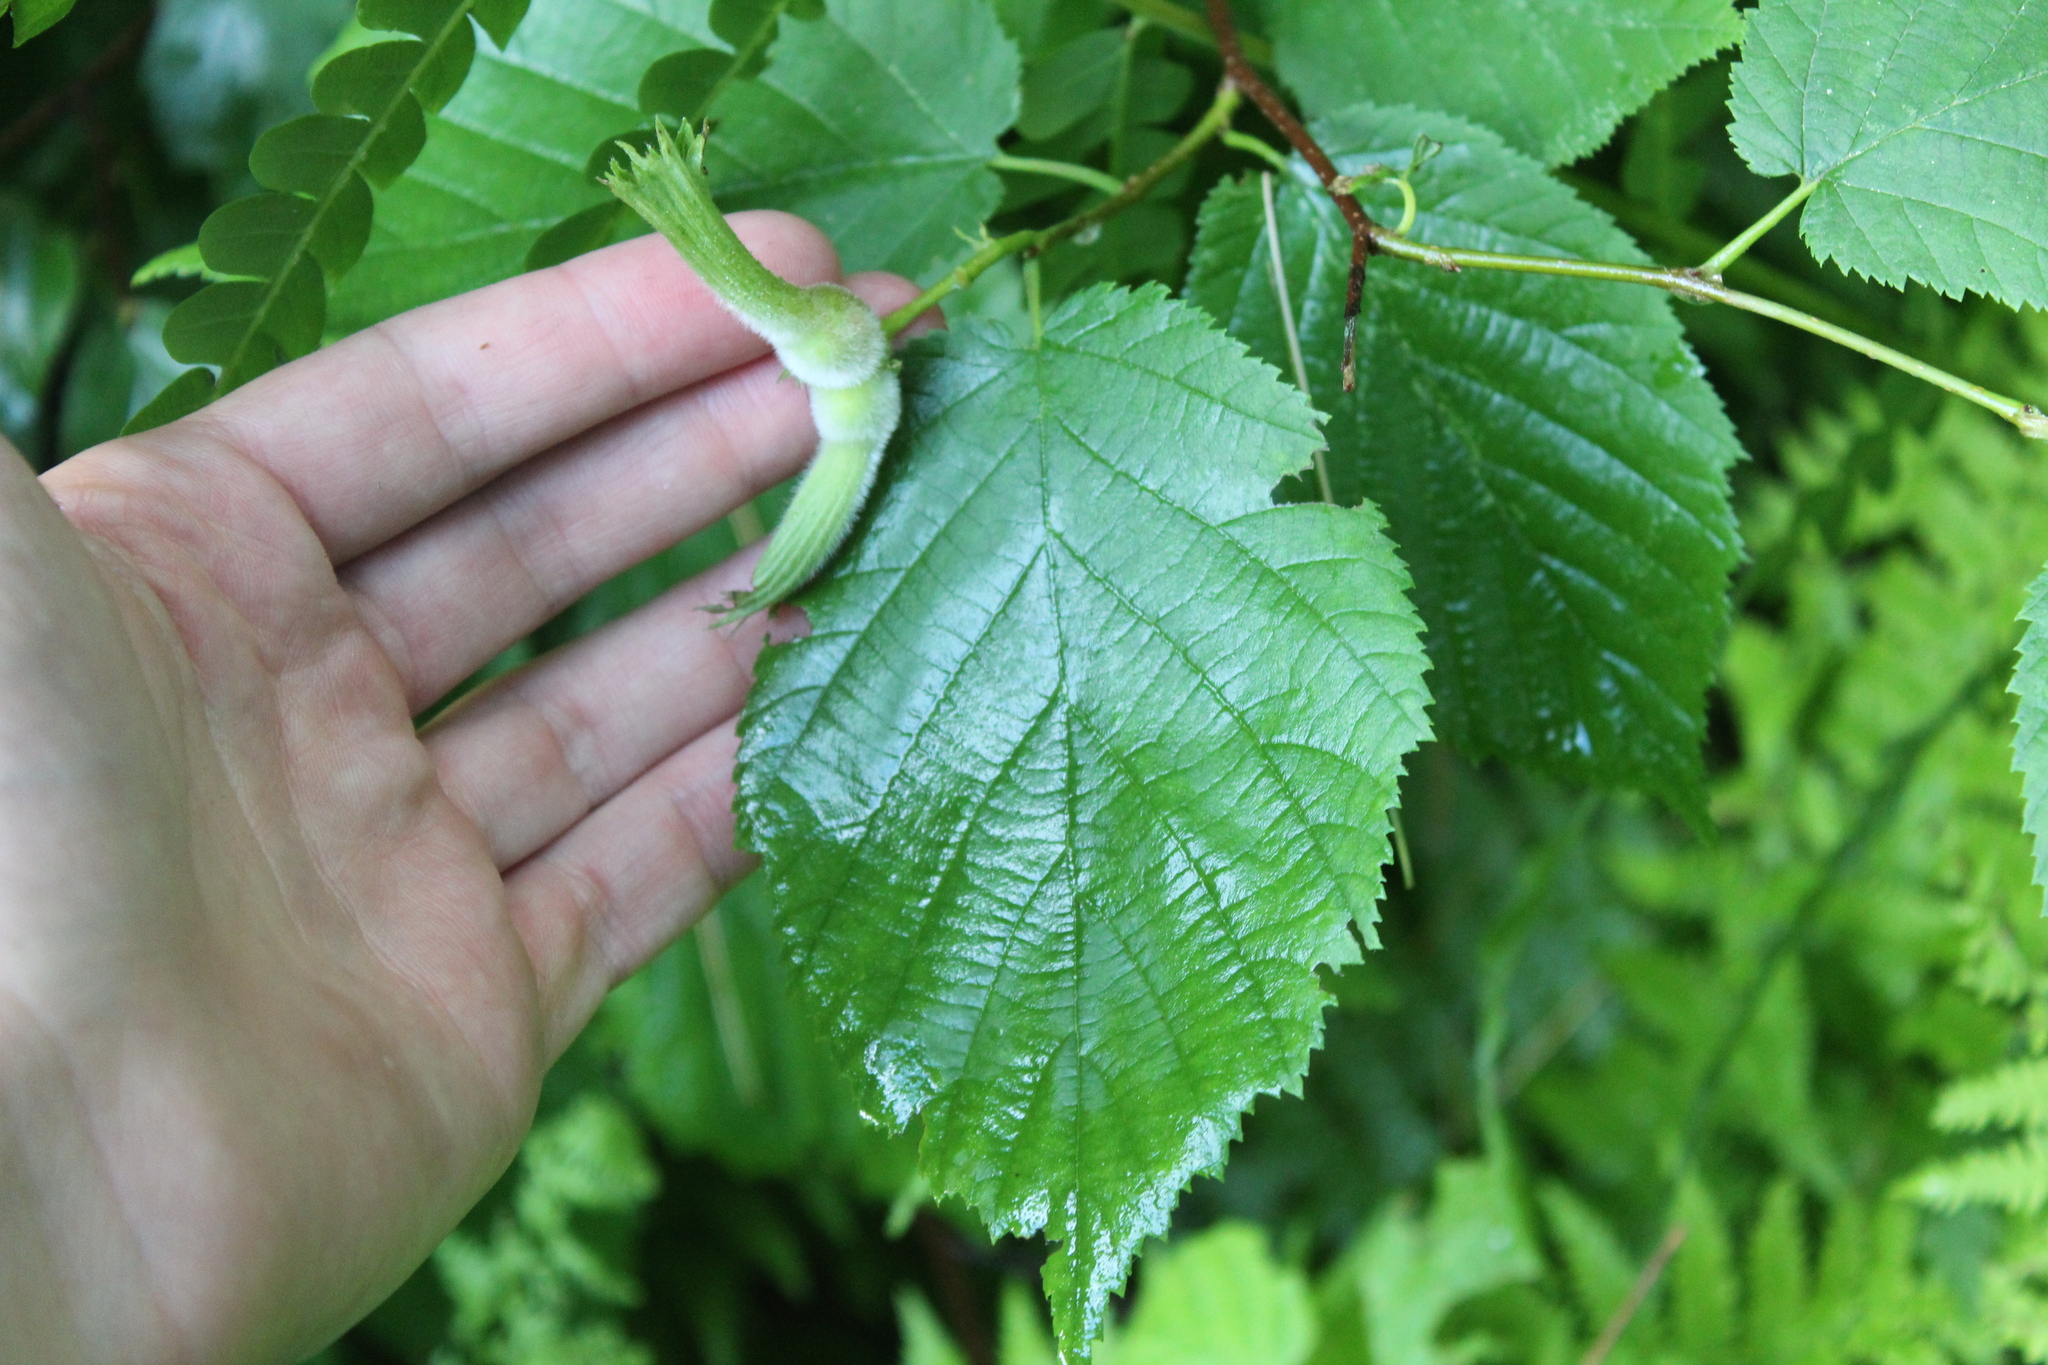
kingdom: Plantae
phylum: Tracheophyta
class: Magnoliopsida
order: Fagales
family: Betulaceae
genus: Corylus
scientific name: Corylus cornuta
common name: Beaked hazel
